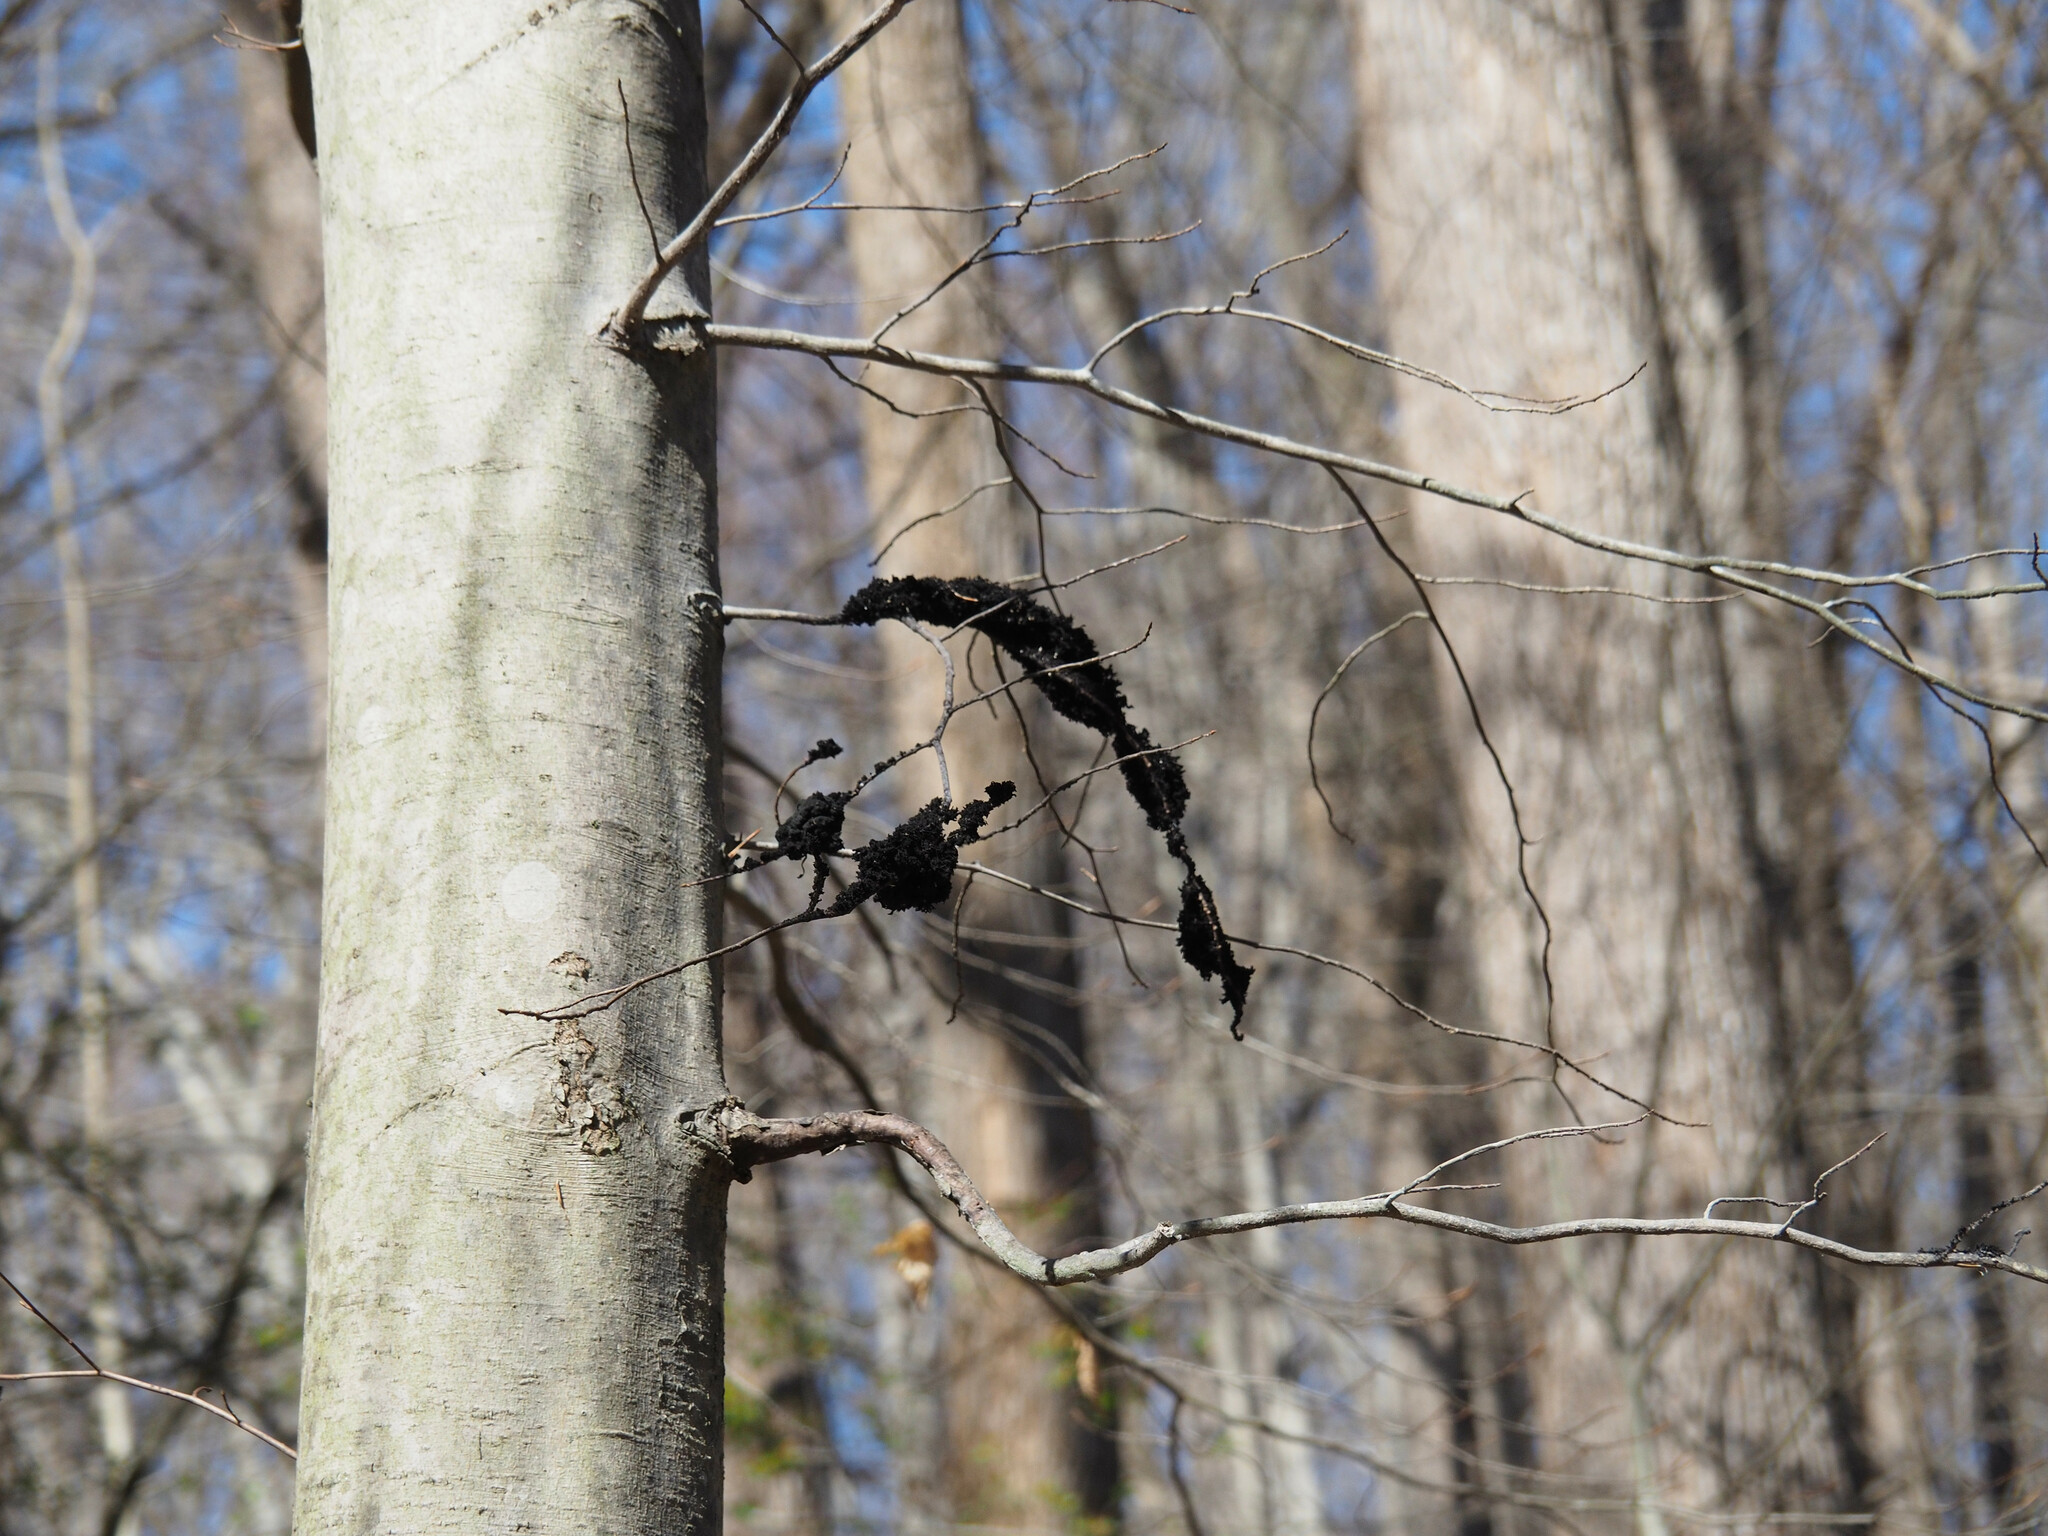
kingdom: Fungi
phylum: Ascomycota
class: Dothideomycetes
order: Capnodiales
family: Capnodiaceae
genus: Scorias
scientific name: Scorias spongiosa
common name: Black sooty mold
